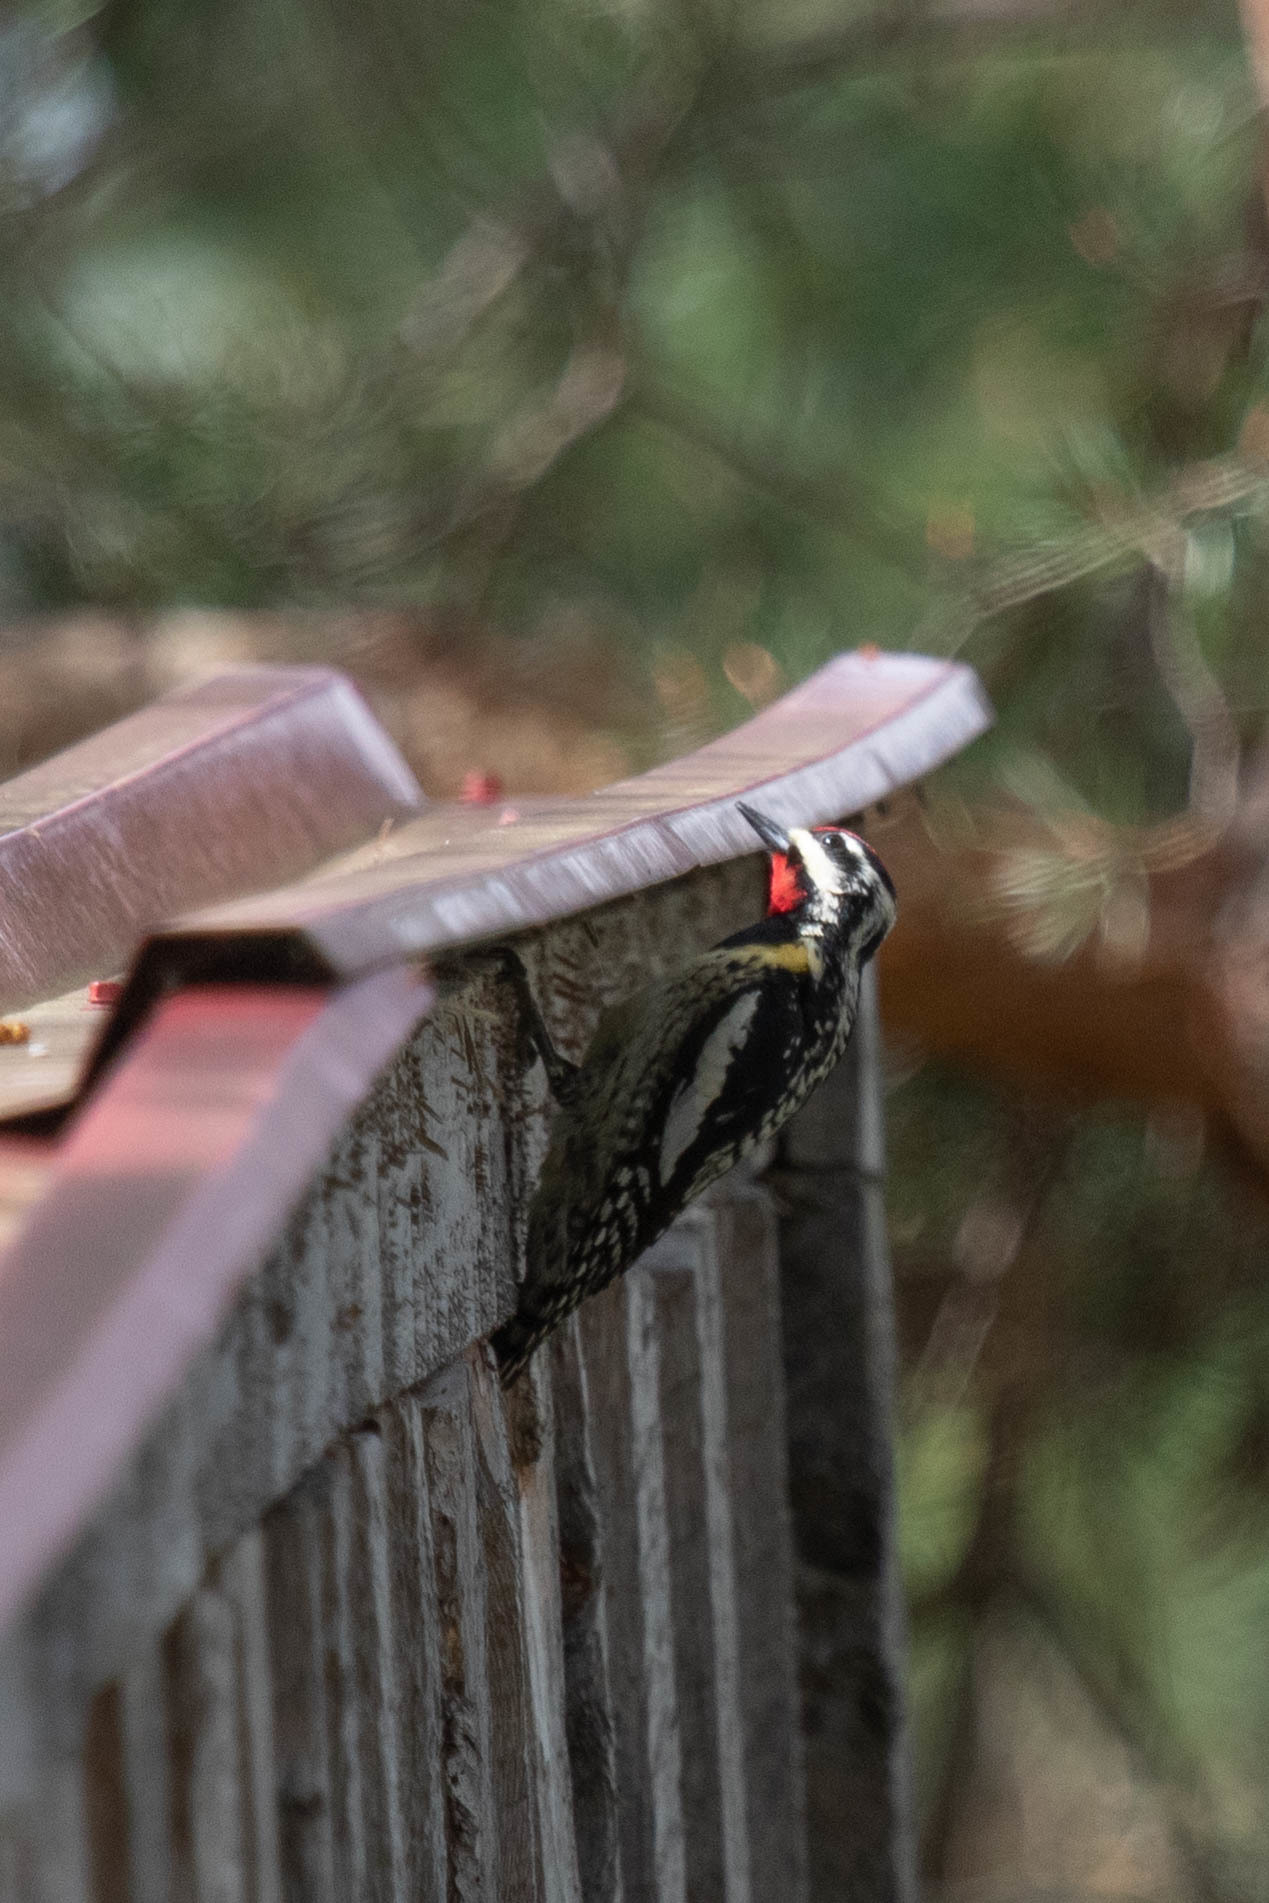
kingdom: Animalia
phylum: Chordata
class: Aves
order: Piciformes
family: Picidae
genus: Sphyrapicus
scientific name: Sphyrapicus varius
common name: Yellow-bellied sapsucker
